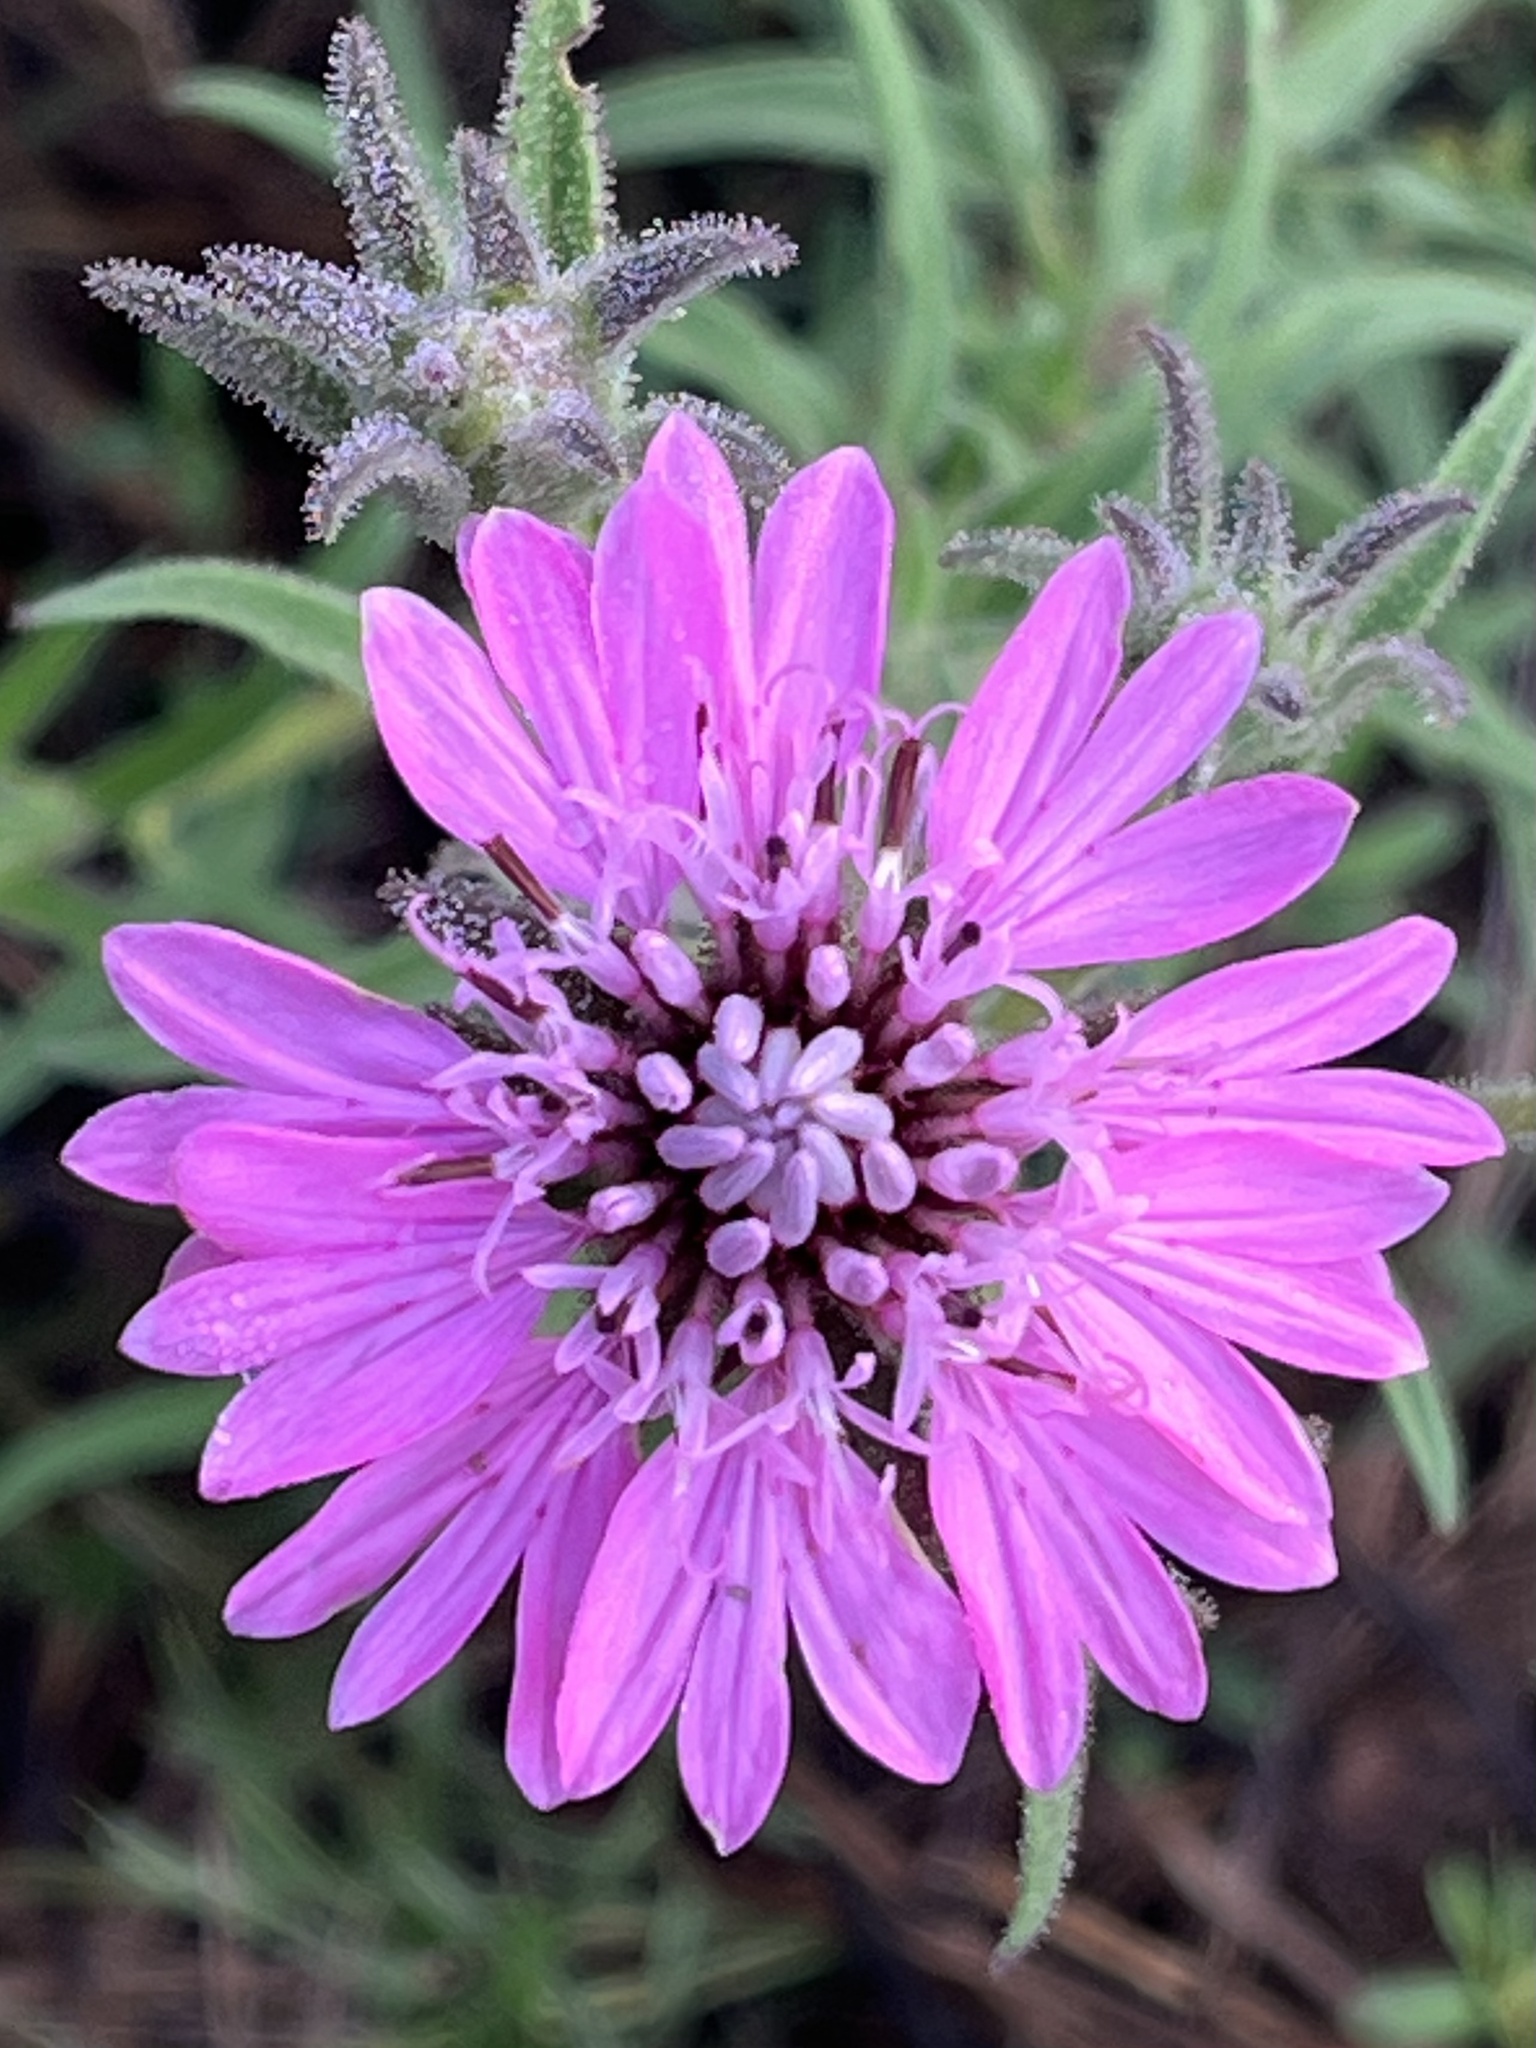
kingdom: Plantae
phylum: Tracheophyta
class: Magnoliopsida
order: Asterales
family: Asteraceae
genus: Palafoxia
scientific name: Palafoxia hookeriana
